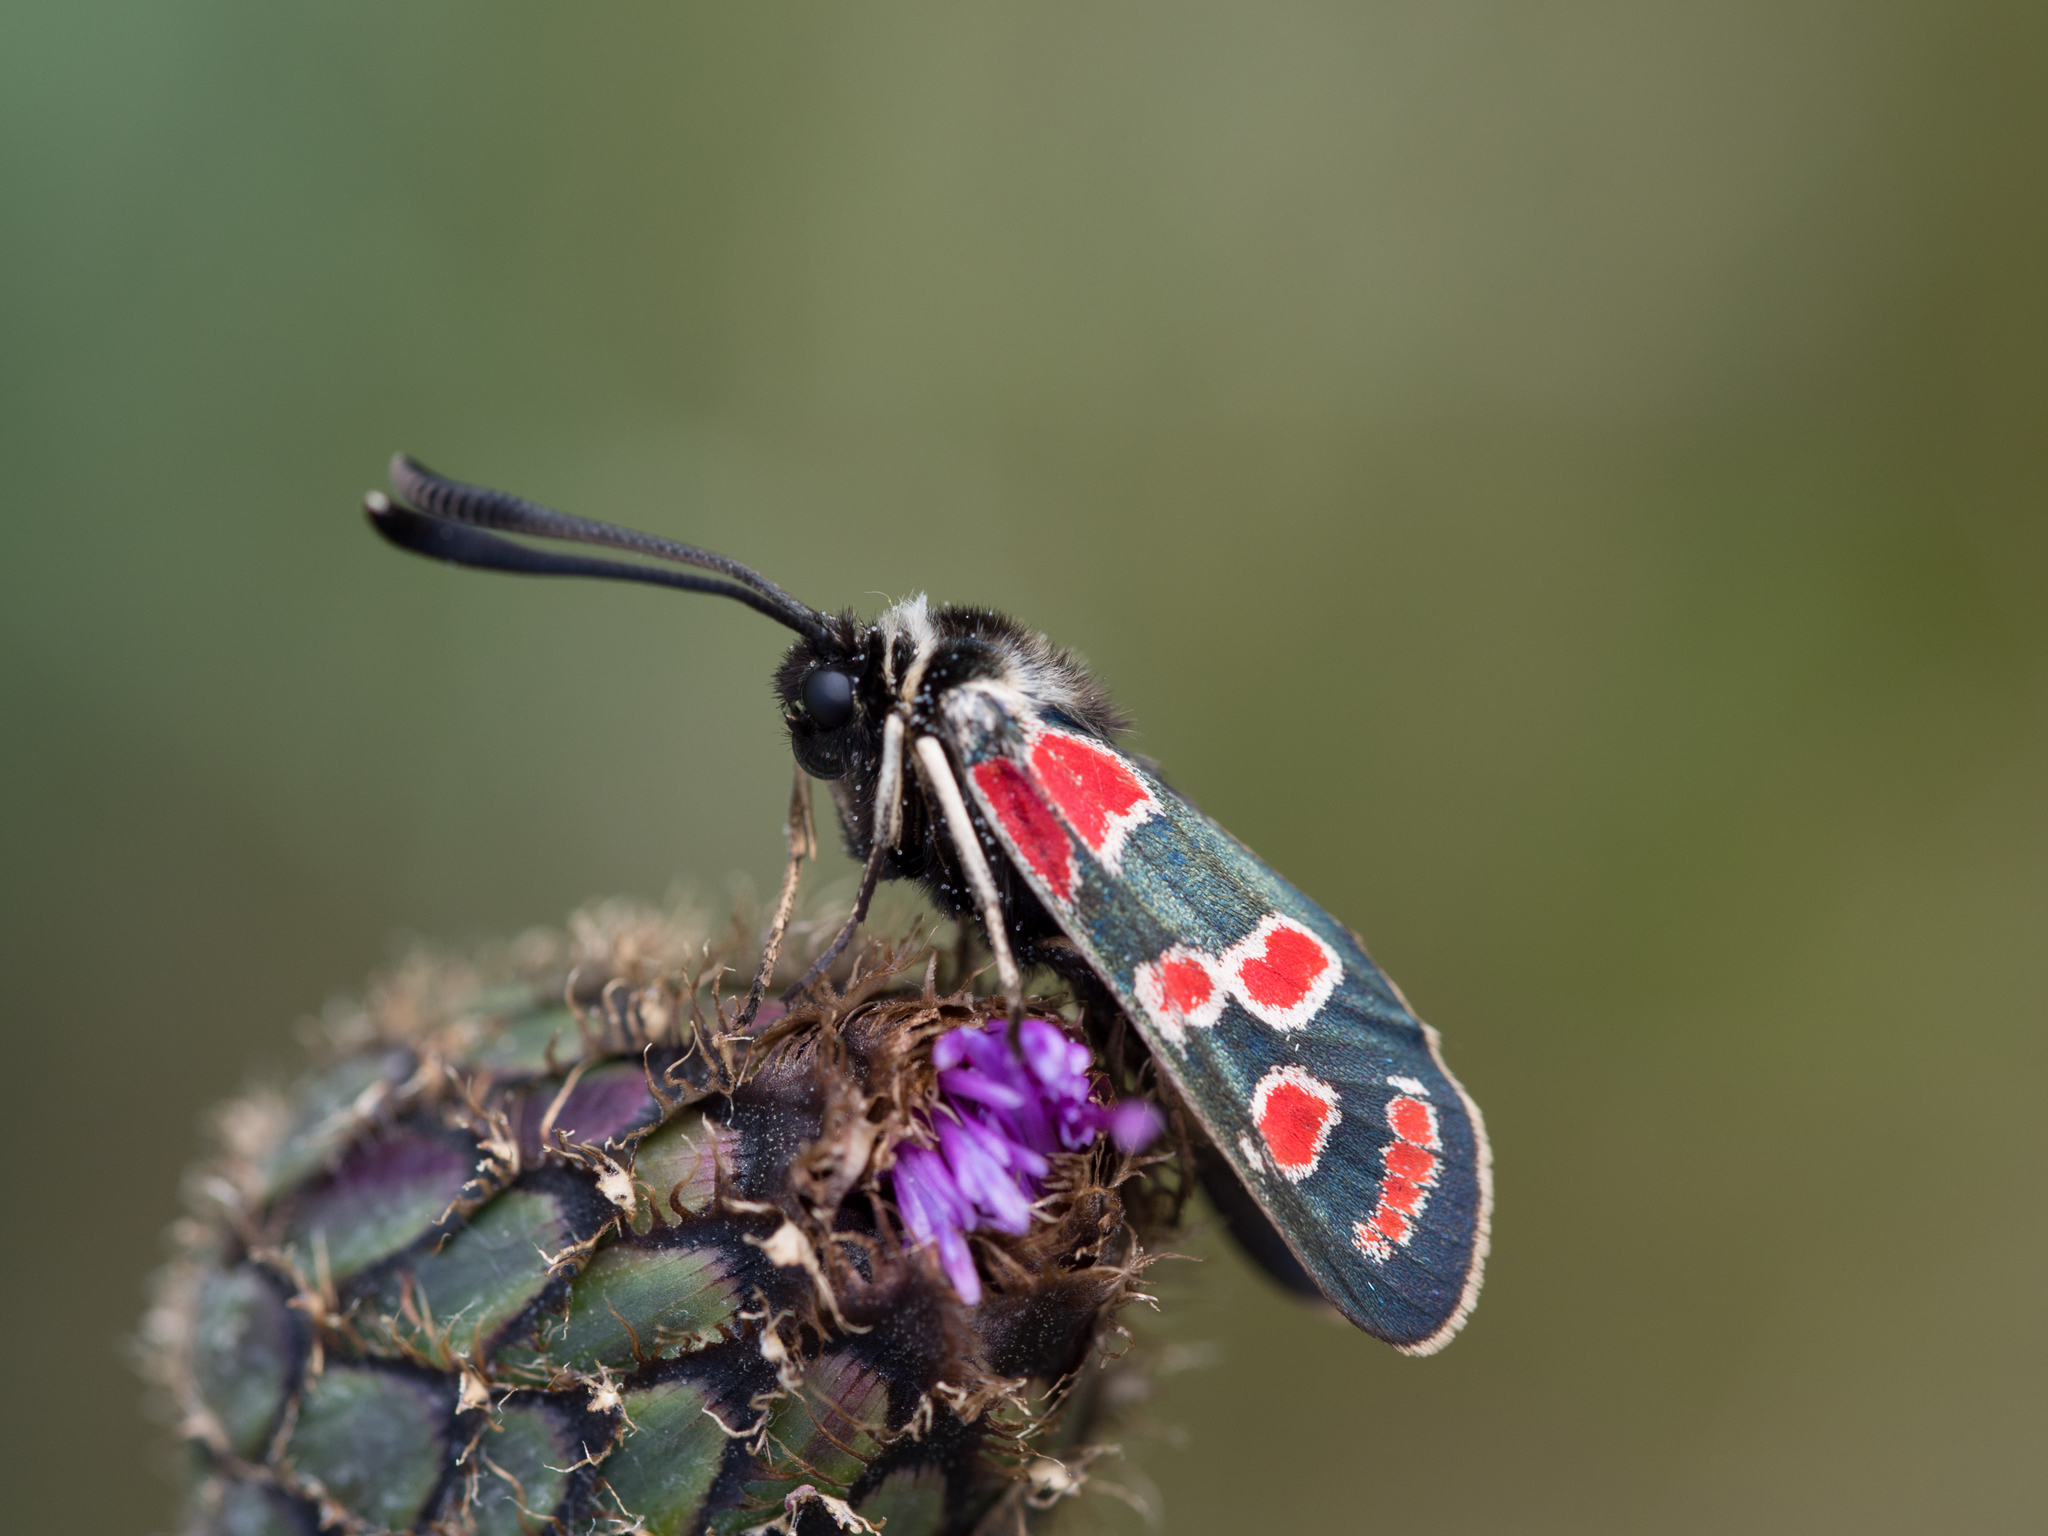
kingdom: Animalia
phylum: Arthropoda
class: Insecta
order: Lepidoptera
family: Zygaenidae
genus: Zygaena
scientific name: Zygaena carniolica
